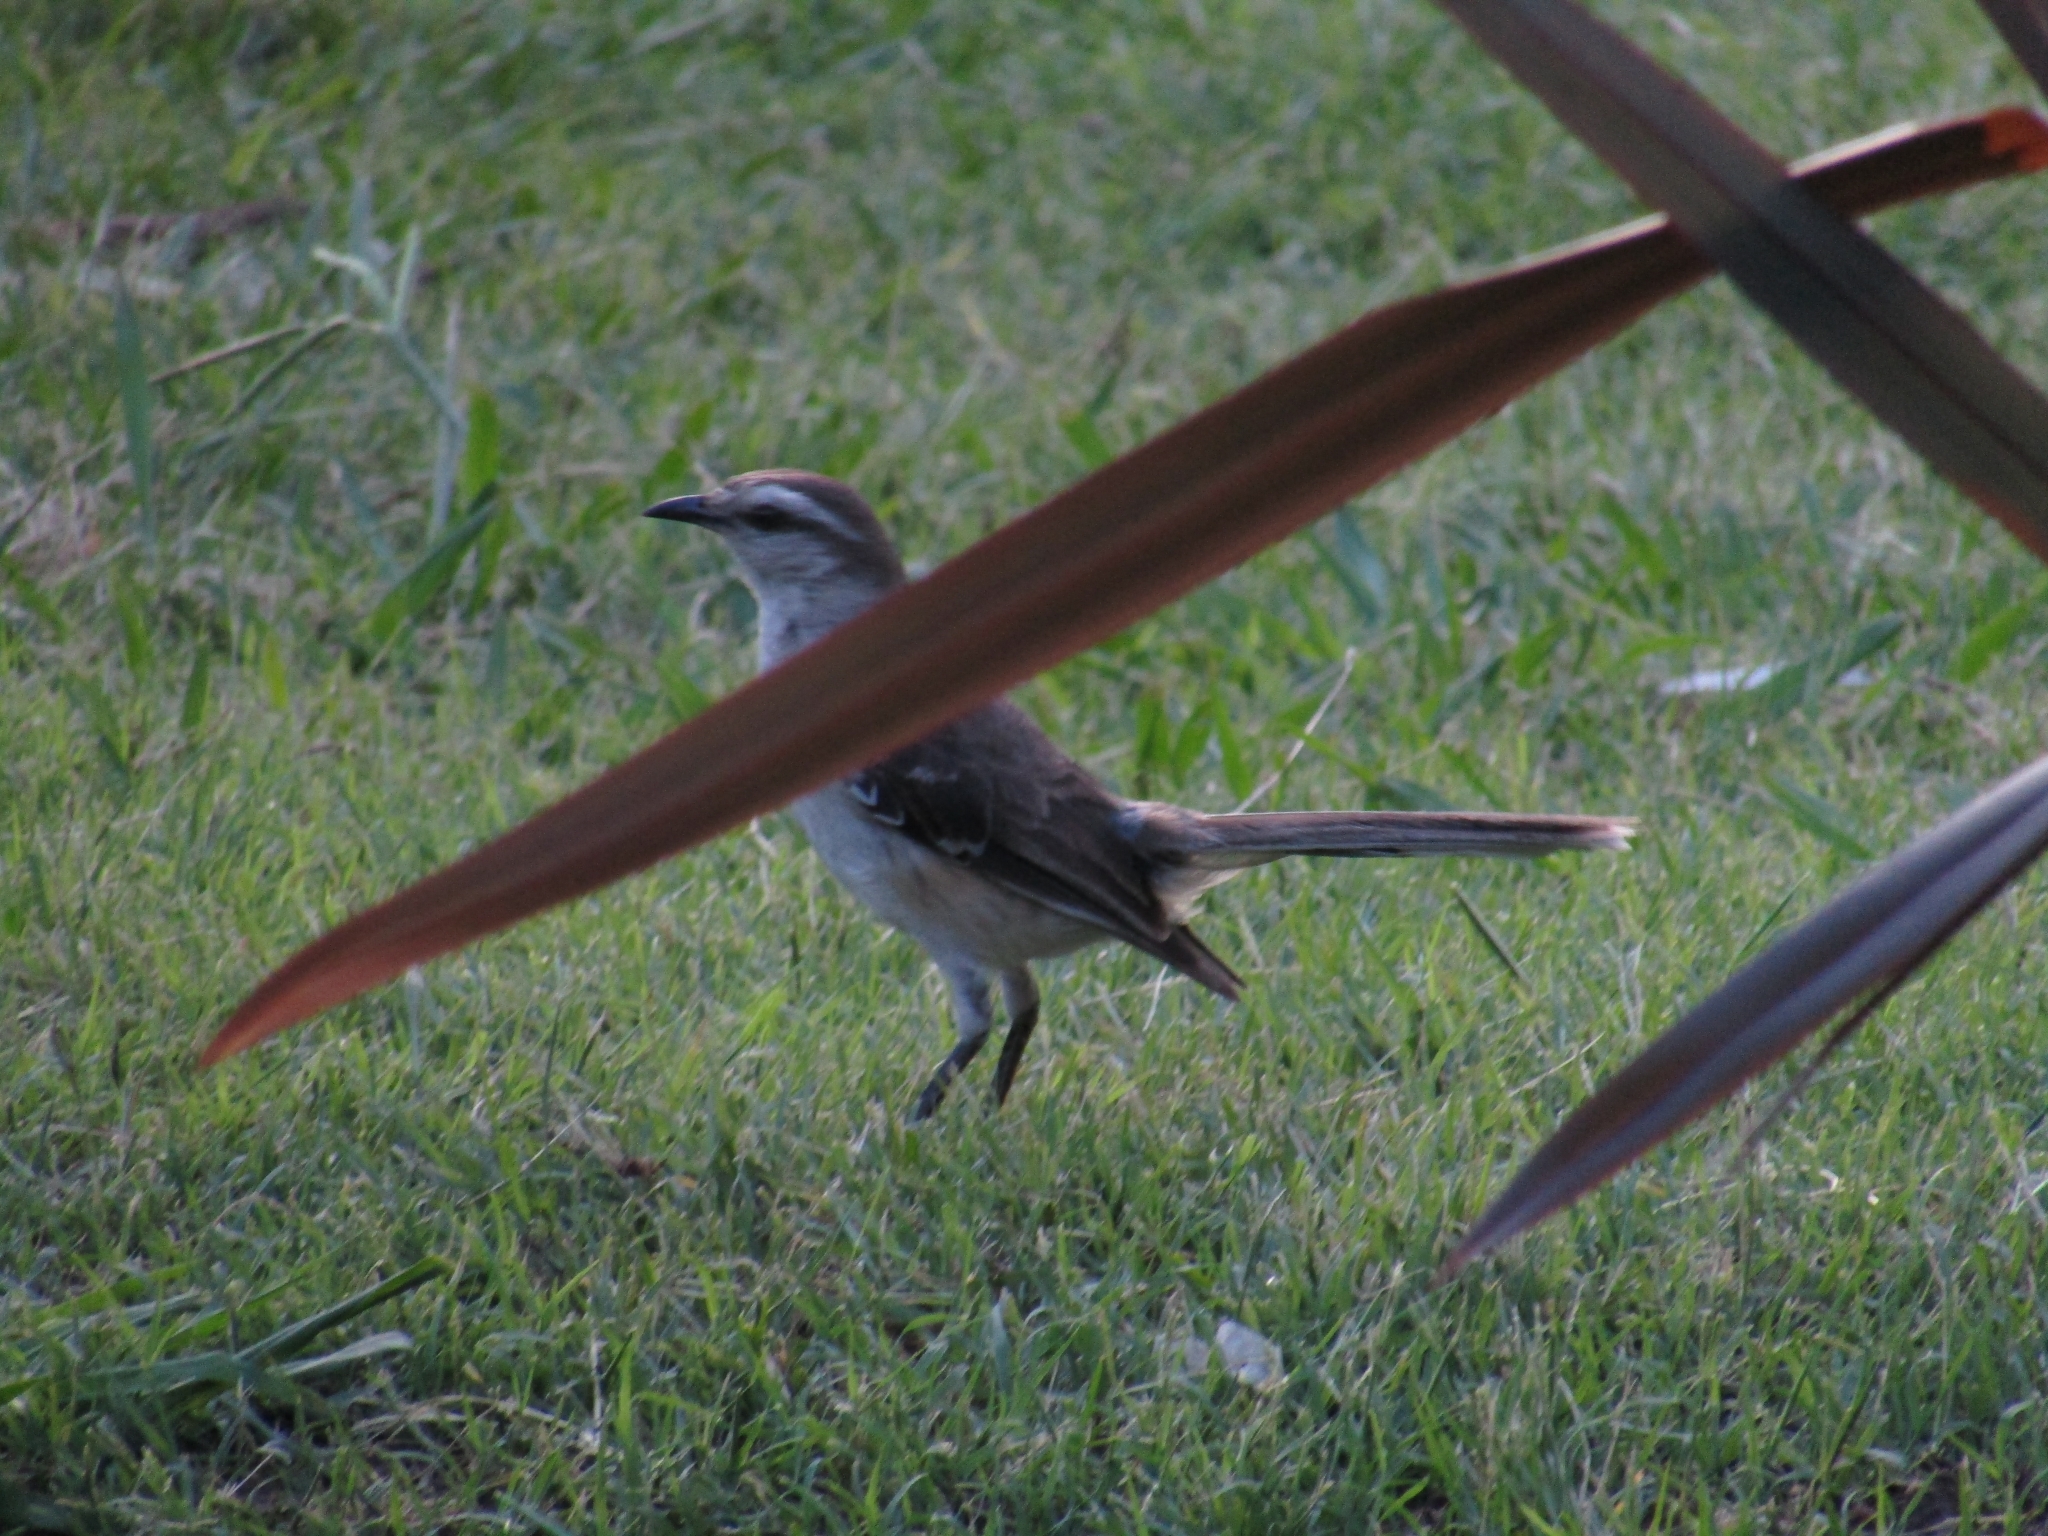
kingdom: Animalia
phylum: Chordata
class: Aves
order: Passeriformes
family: Mimidae
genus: Mimus
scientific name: Mimus saturninus
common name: Chalk-browed mockingbird
